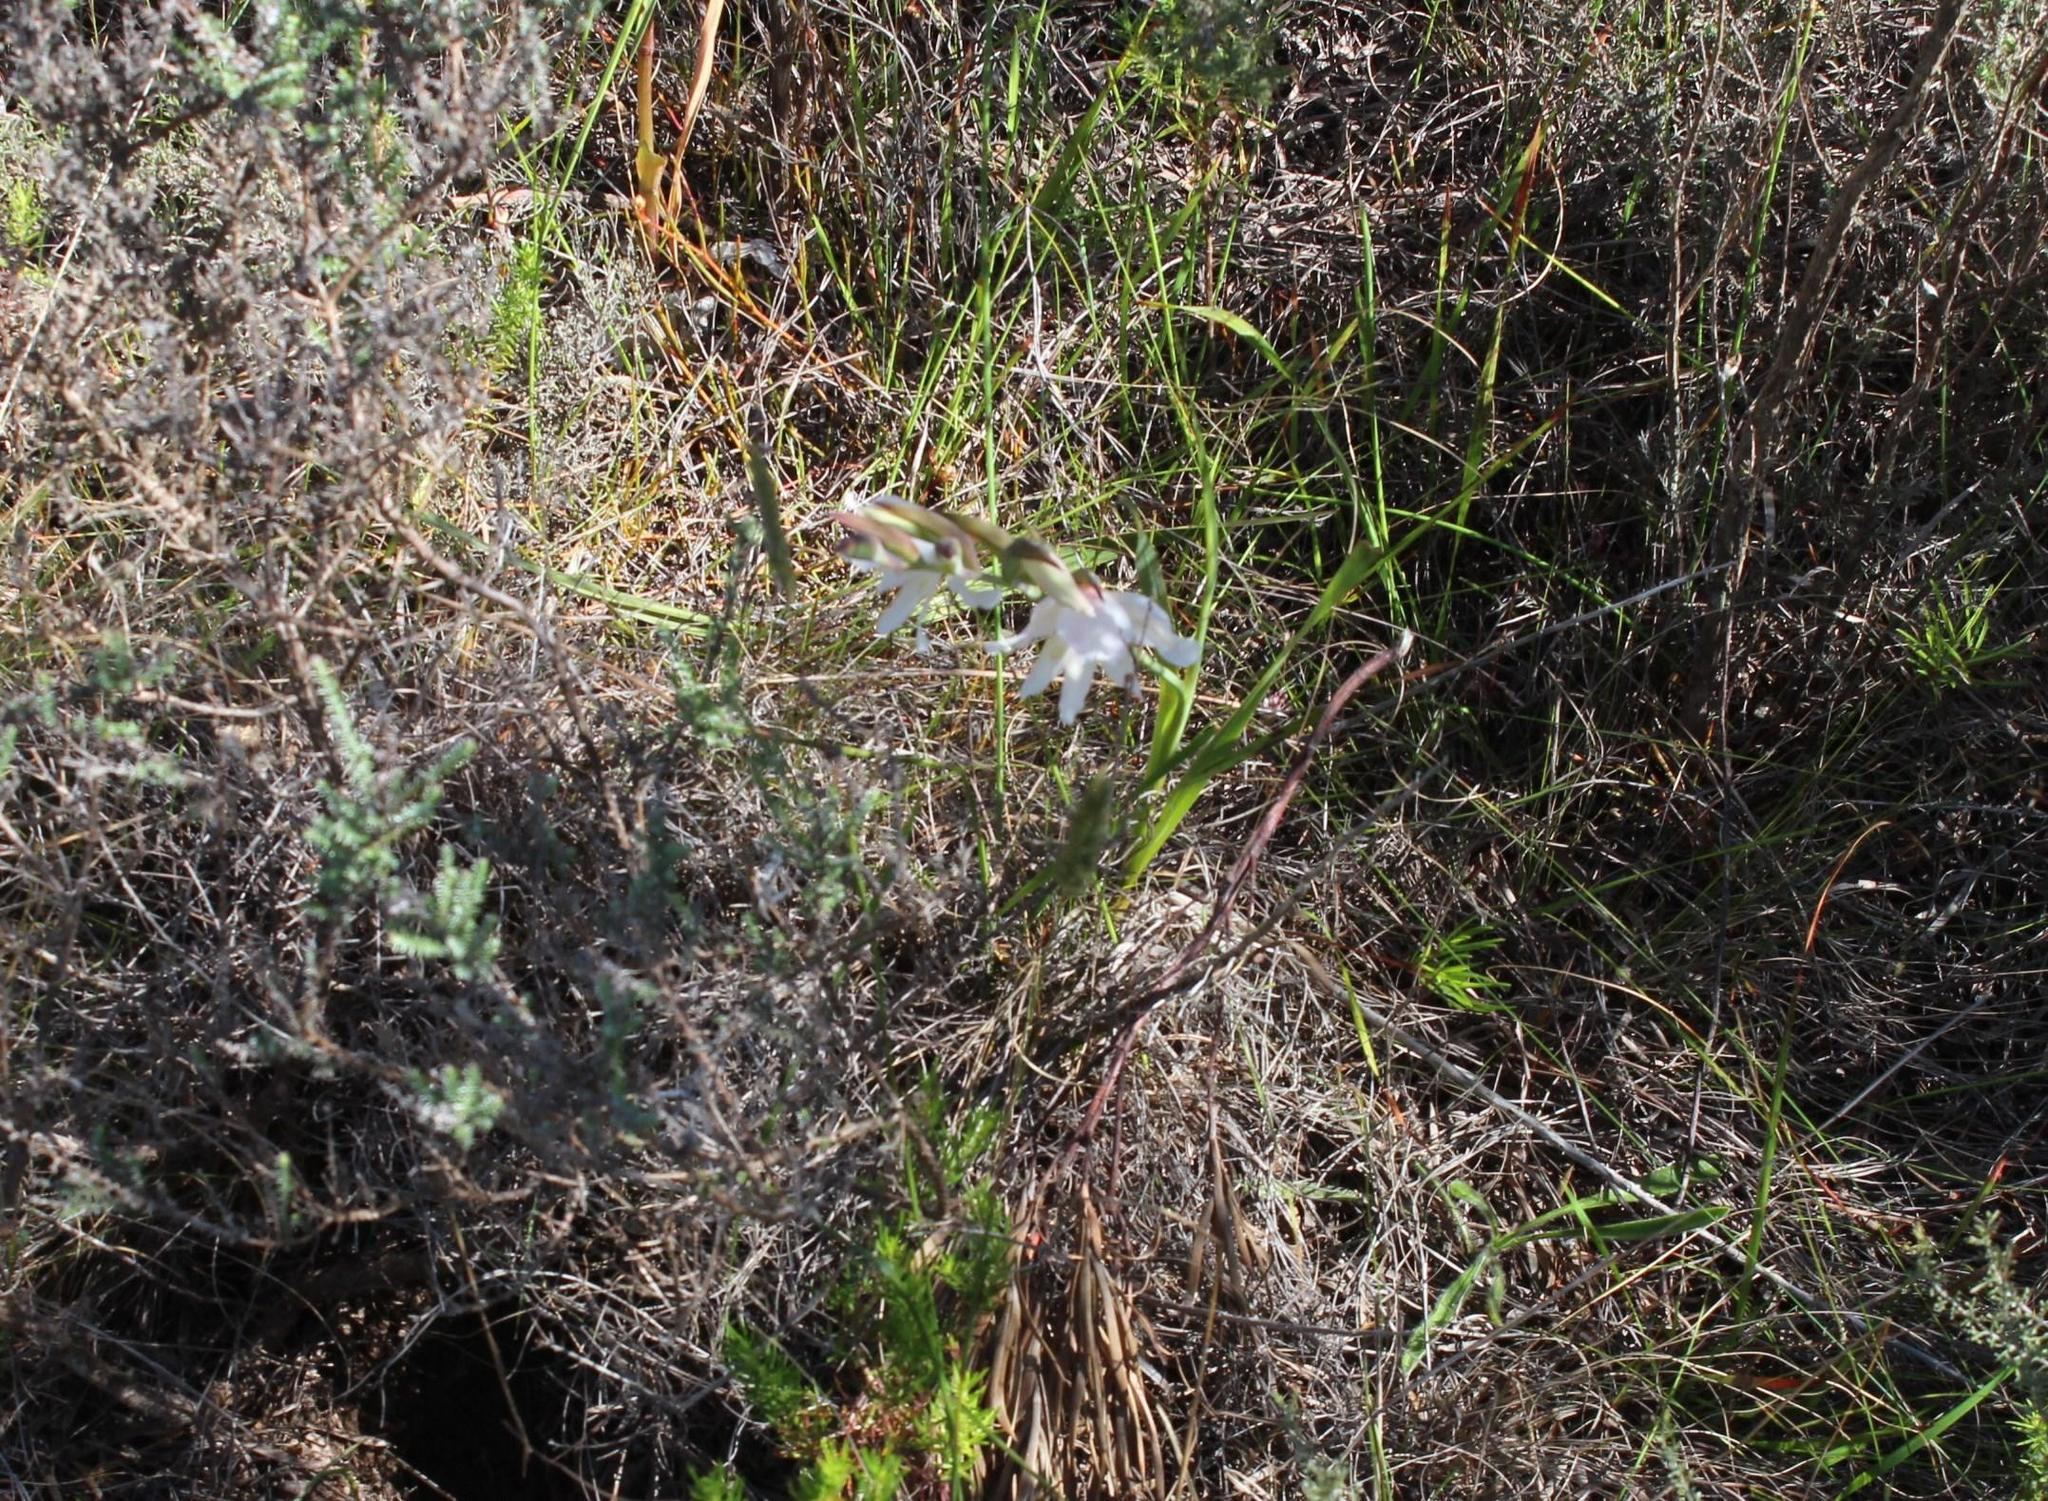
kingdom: Plantae
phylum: Tracheophyta
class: Liliopsida
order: Asparagales
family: Iridaceae
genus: Gladiolus
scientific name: Gladiolus carneus
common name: Painted-lady
